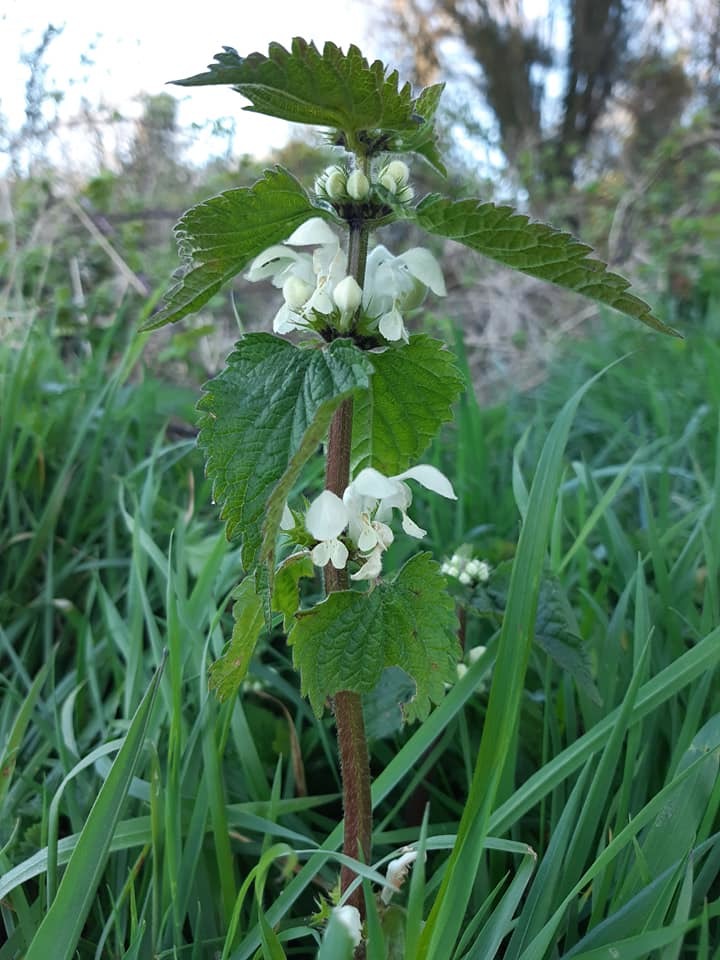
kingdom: Plantae
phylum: Tracheophyta
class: Magnoliopsida
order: Lamiales
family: Lamiaceae
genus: Lamium
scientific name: Lamium album
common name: White dead-nettle
